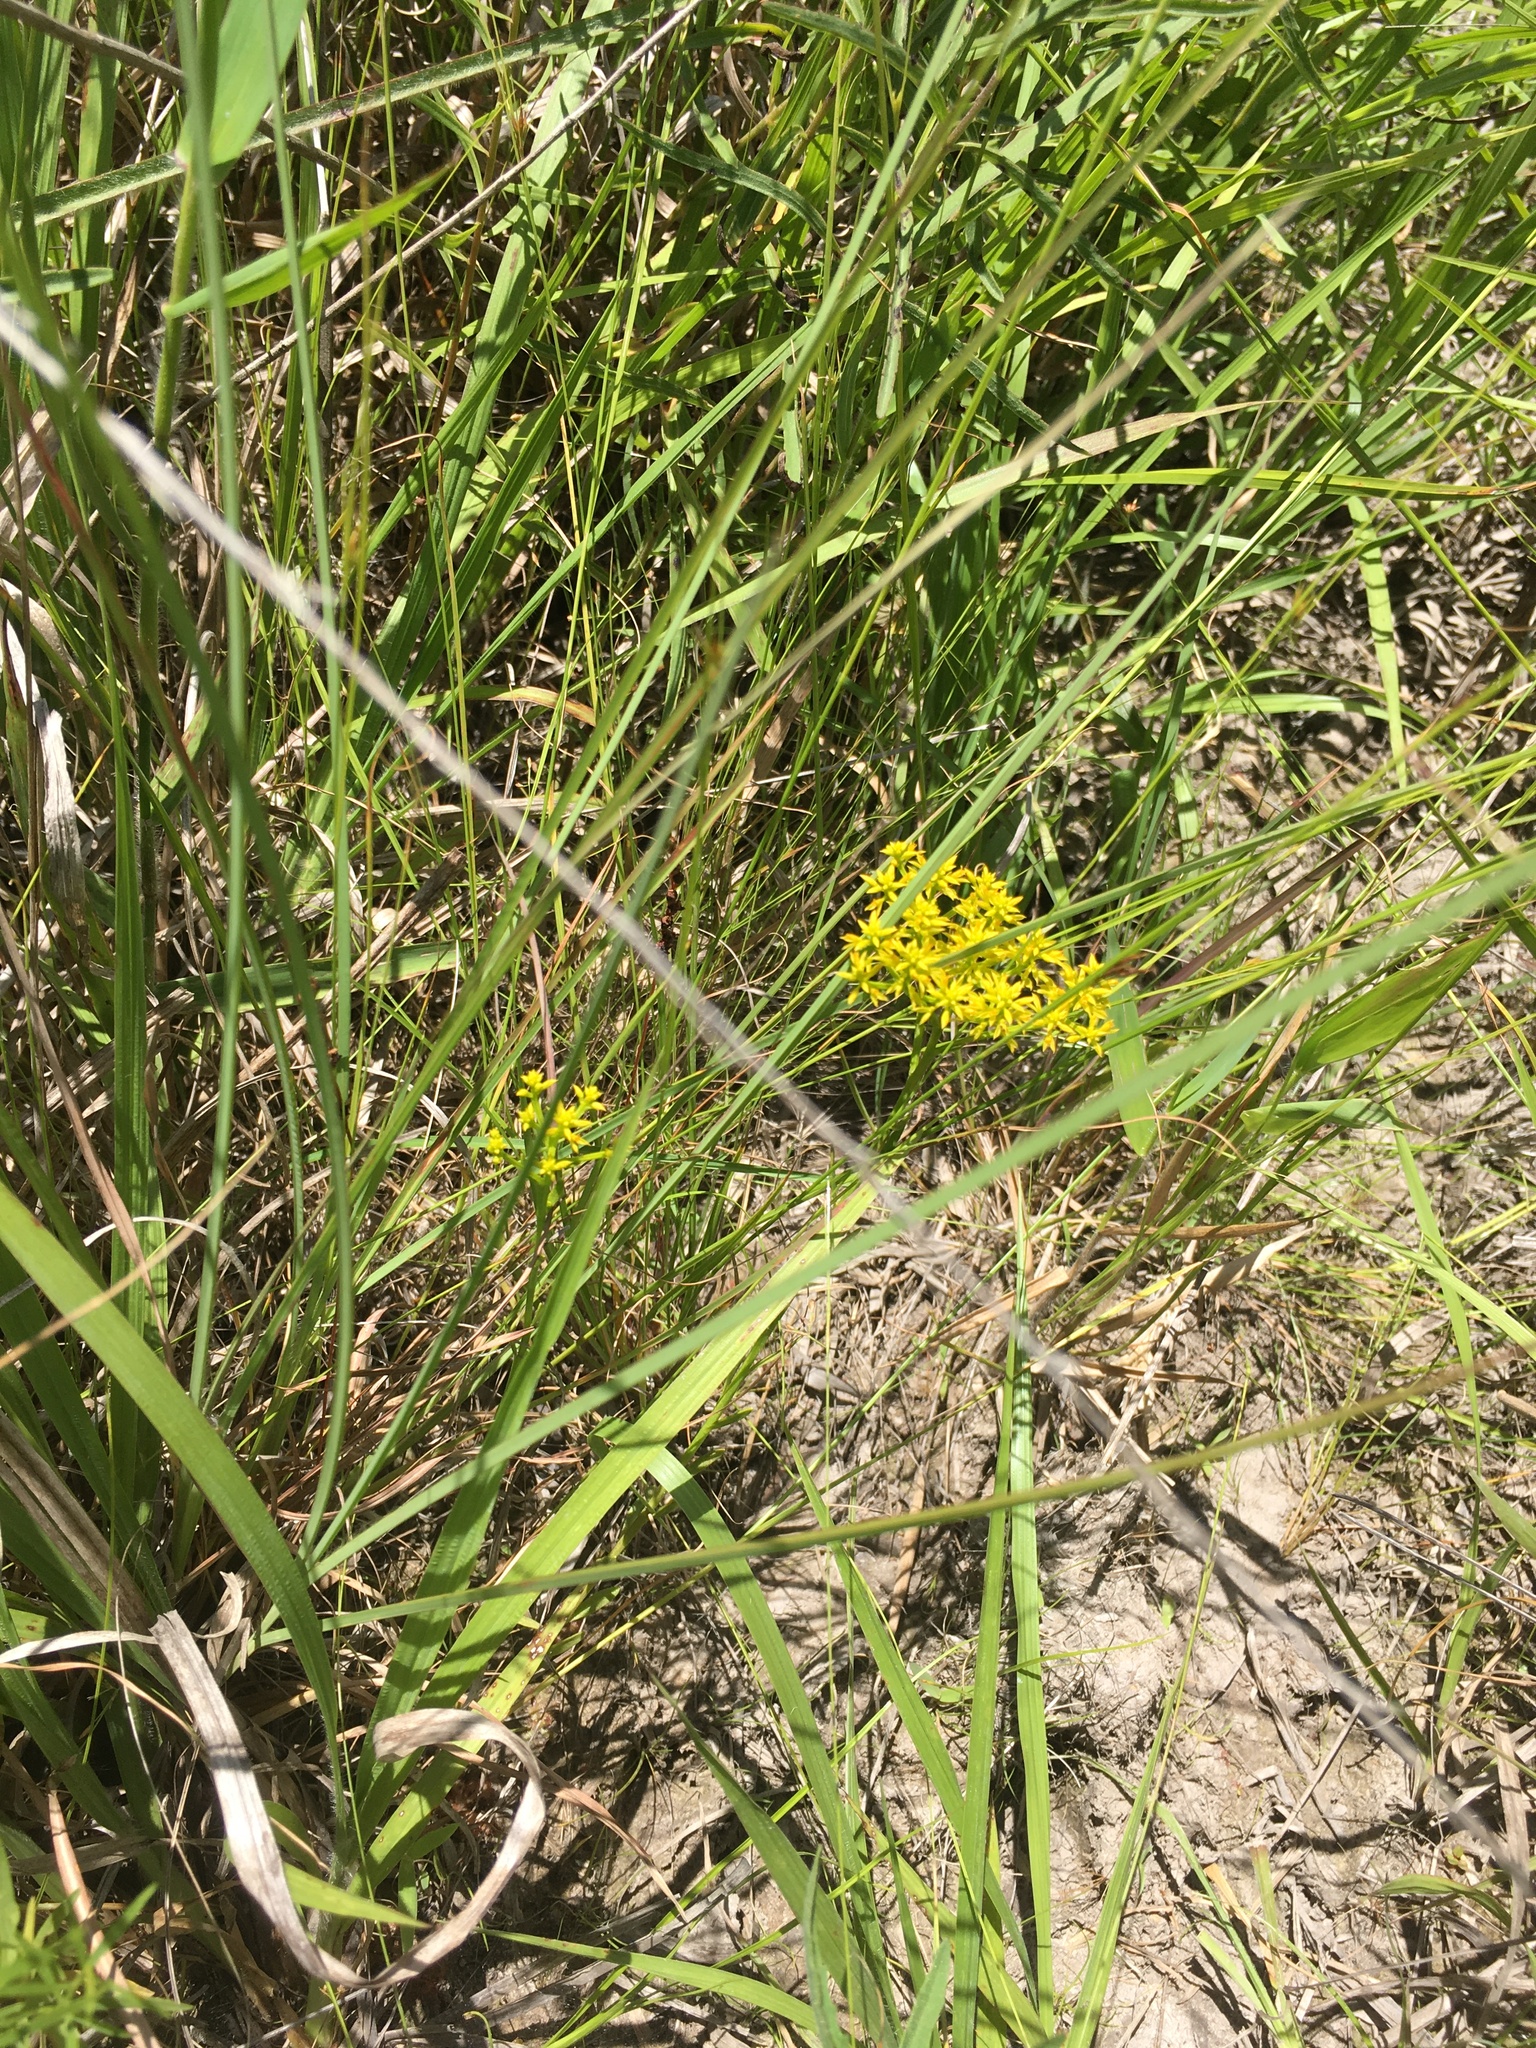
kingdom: Plantae
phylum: Tracheophyta
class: Magnoliopsida
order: Fabales
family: Polygalaceae
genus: Polygala
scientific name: Polygala ramosa
